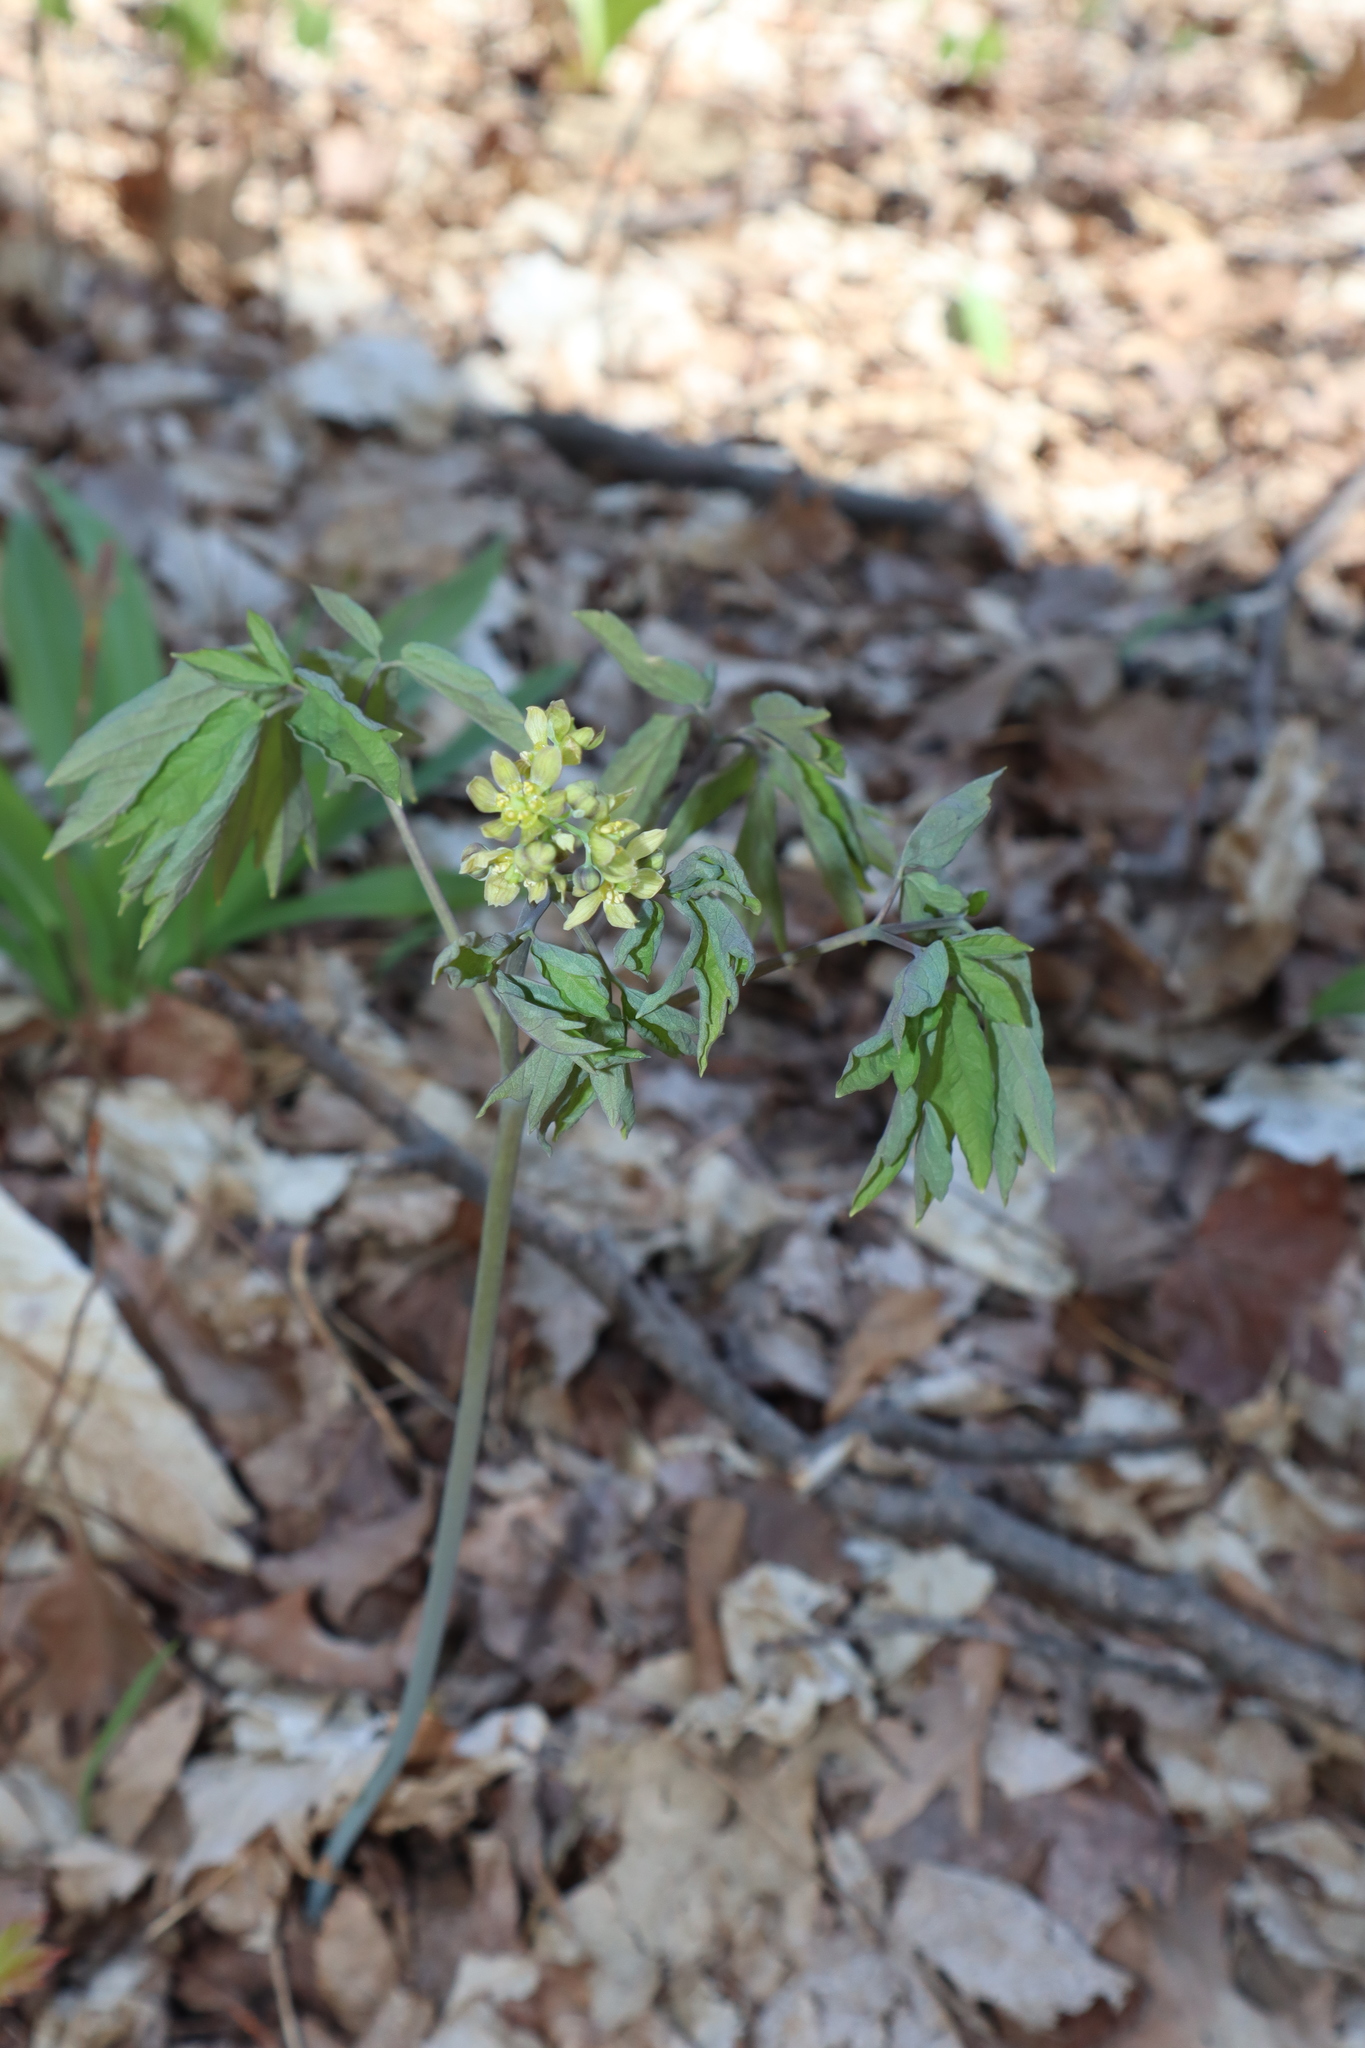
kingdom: Plantae
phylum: Tracheophyta
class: Magnoliopsida
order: Ranunculales
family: Berberidaceae
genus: Caulophyllum
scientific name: Caulophyllum thalictroides
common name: Blue cohosh
